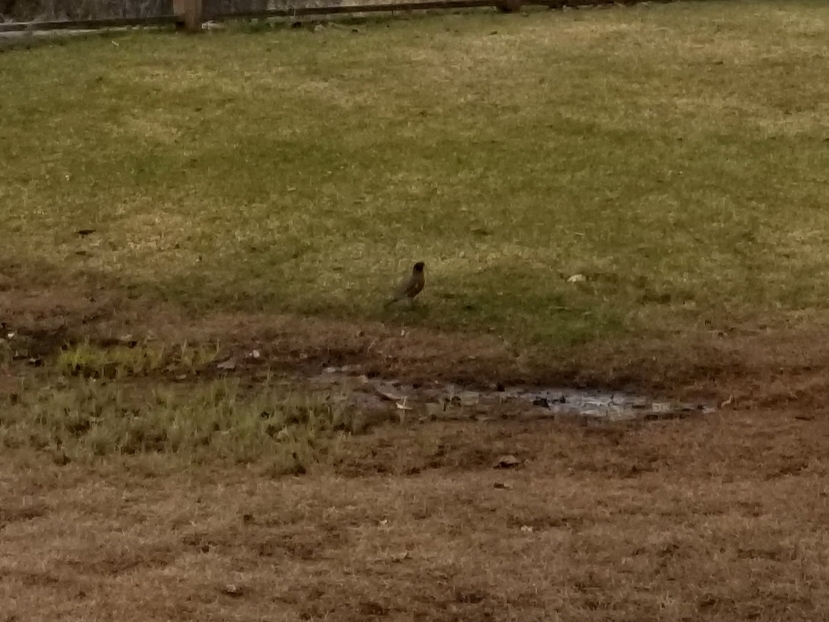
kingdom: Animalia
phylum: Chordata
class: Aves
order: Passeriformes
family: Turdidae
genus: Turdus
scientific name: Turdus migratorius
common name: American robin
